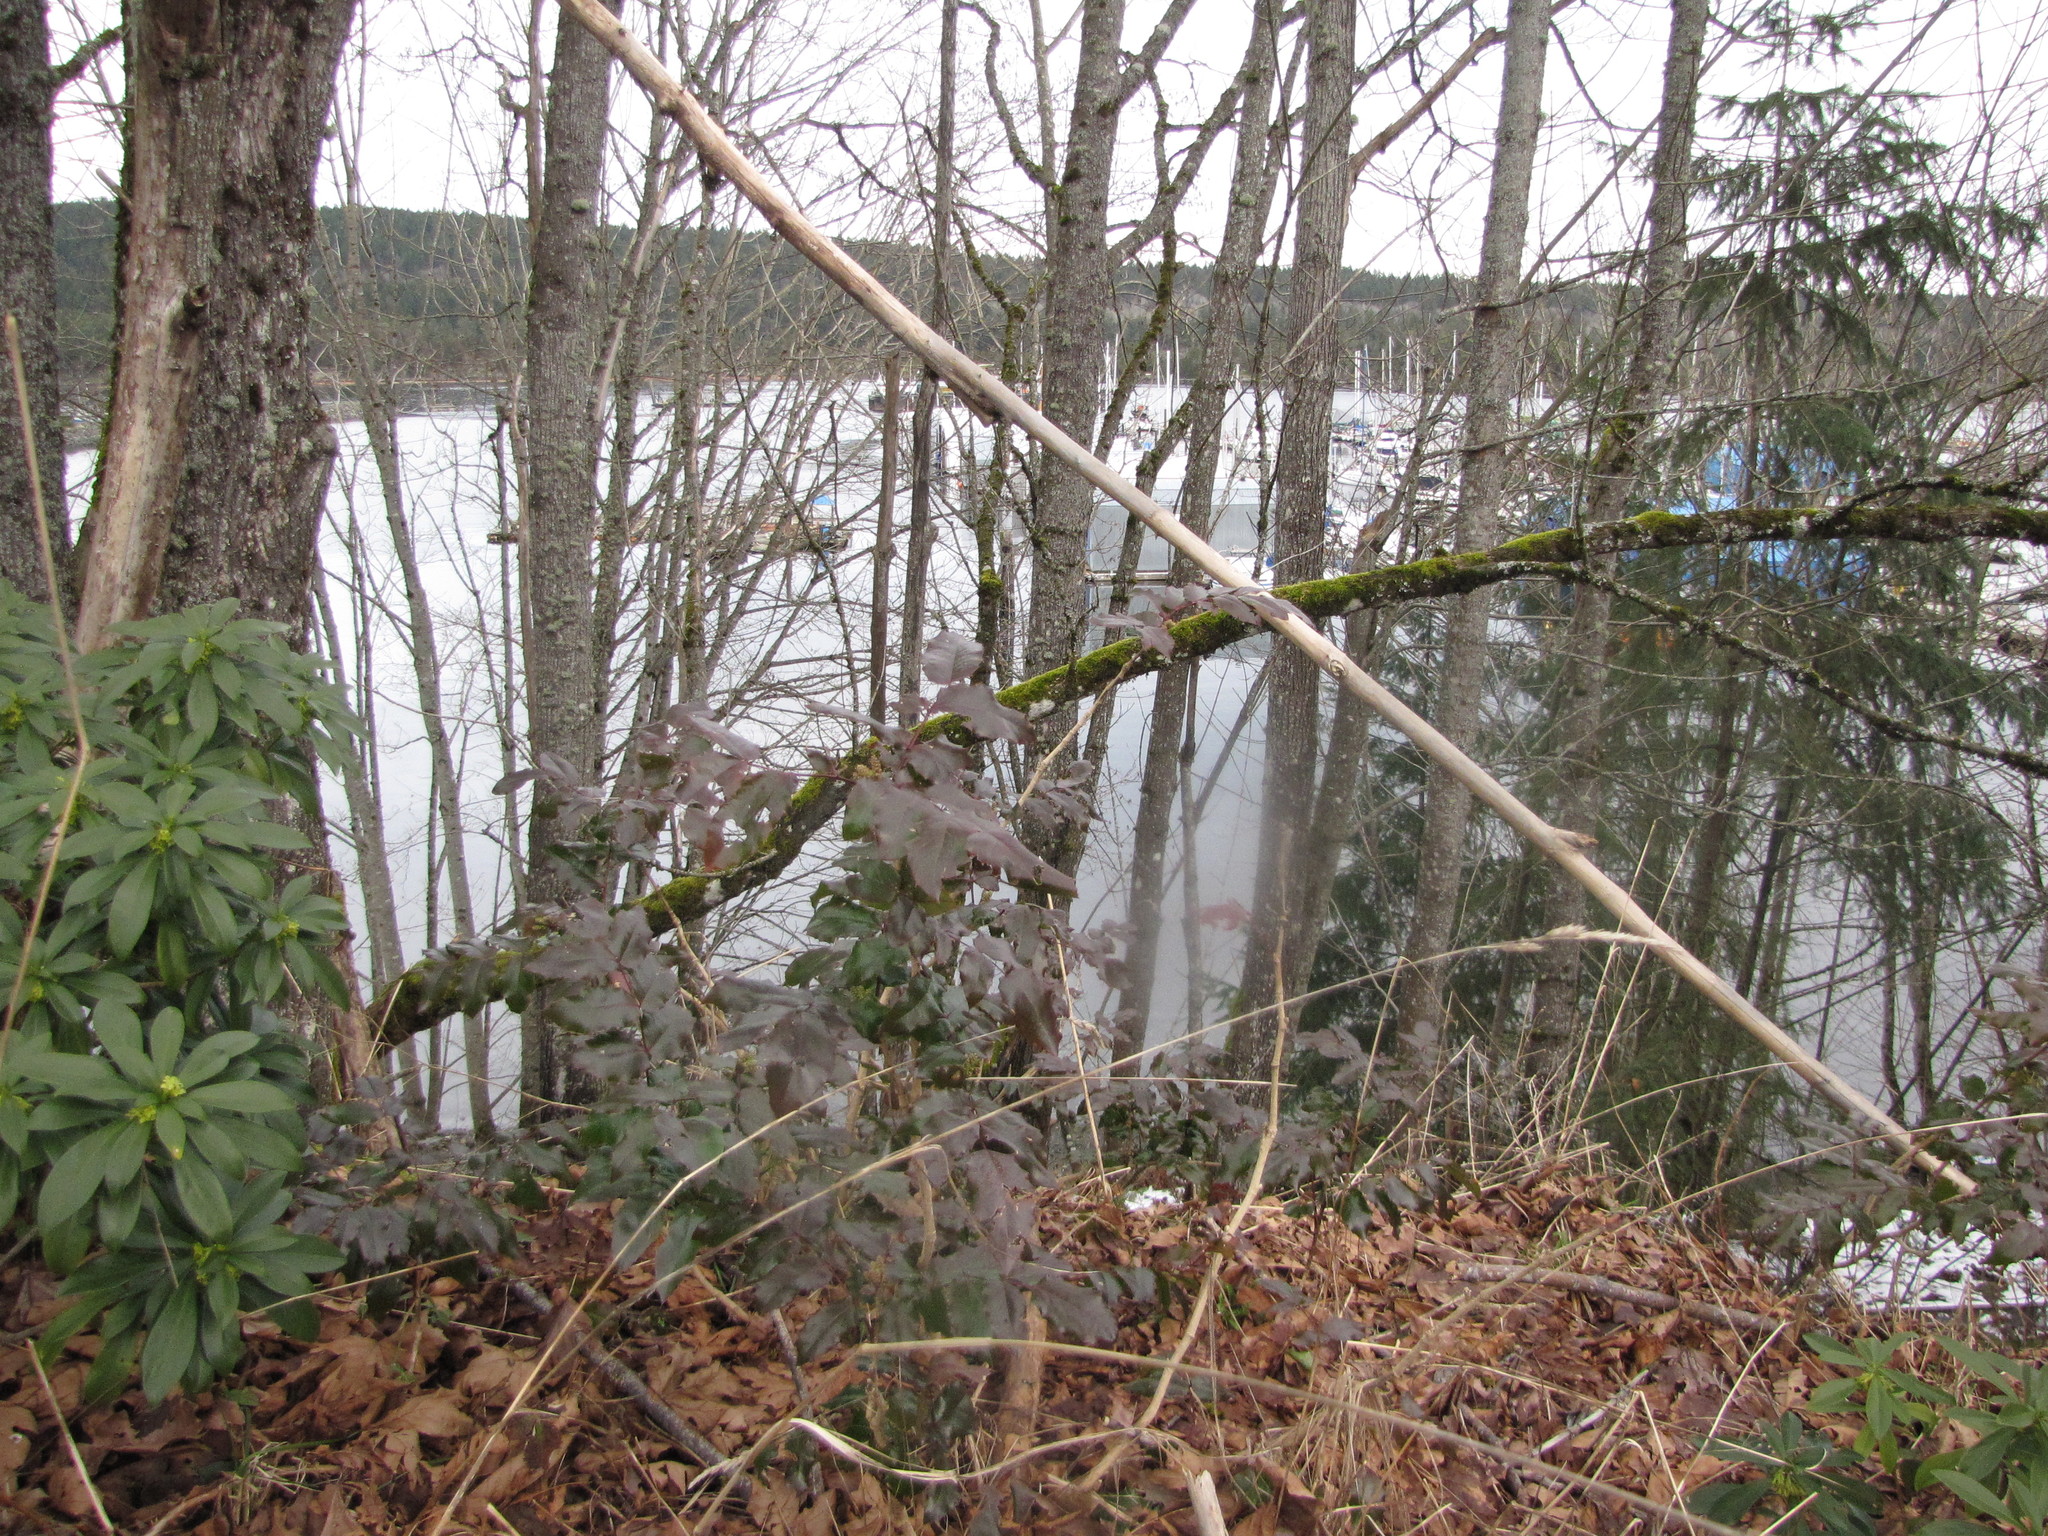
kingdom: Plantae
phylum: Tracheophyta
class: Magnoliopsida
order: Ranunculales
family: Berberidaceae
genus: Mahonia
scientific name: Mahonia aquifolium
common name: Oregon-grape
